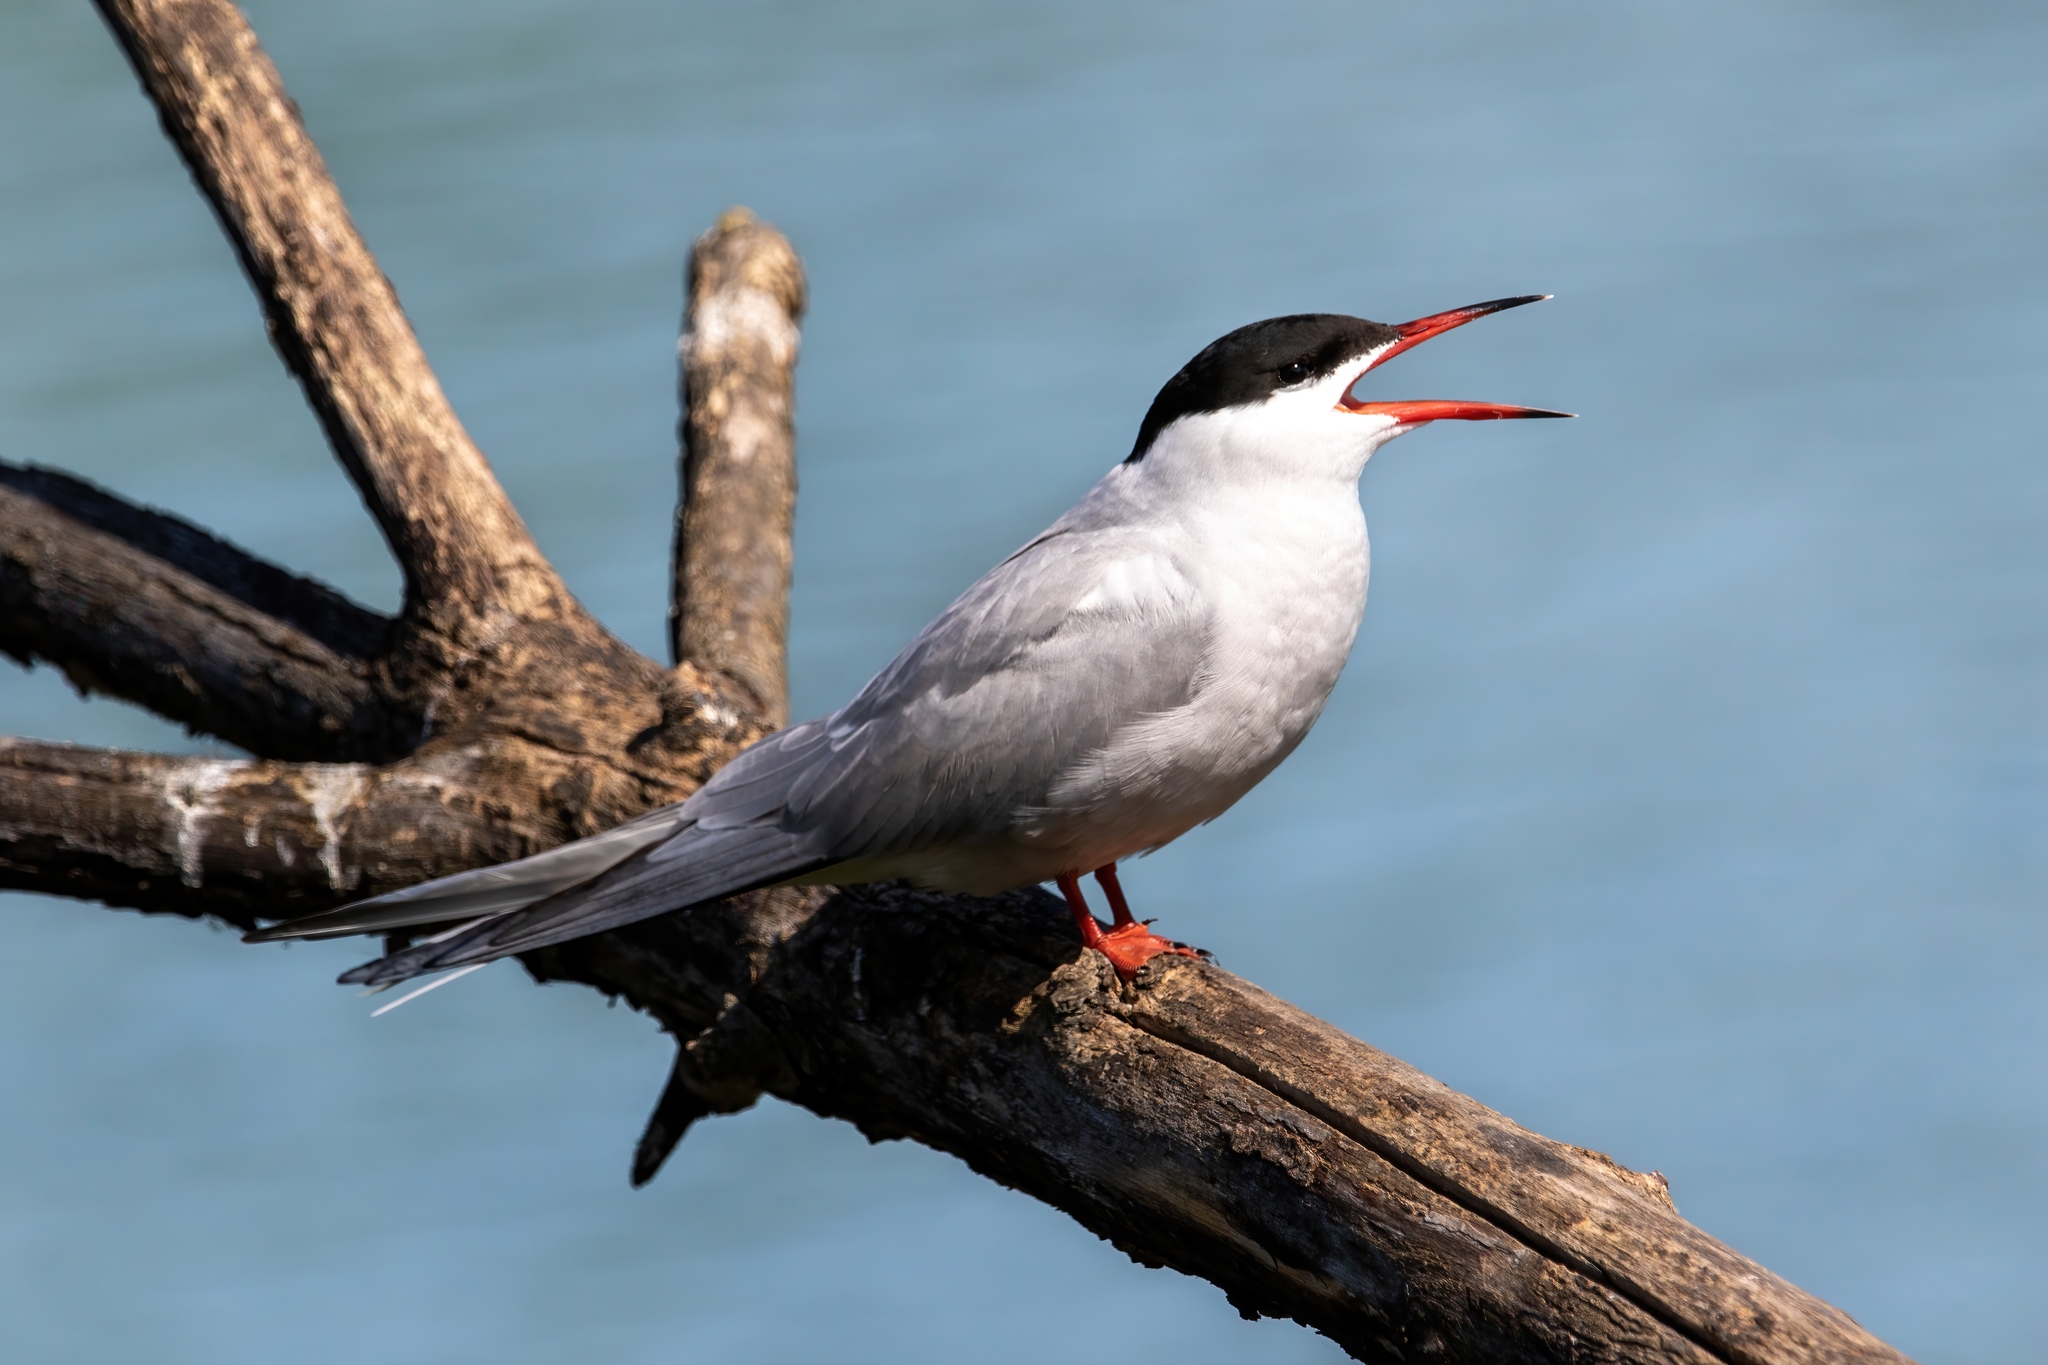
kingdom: Animalia
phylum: Chordata
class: Aves
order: Charadriiformes
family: Laridae
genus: Sterna
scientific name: Sterna hirundo
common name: Common tern
